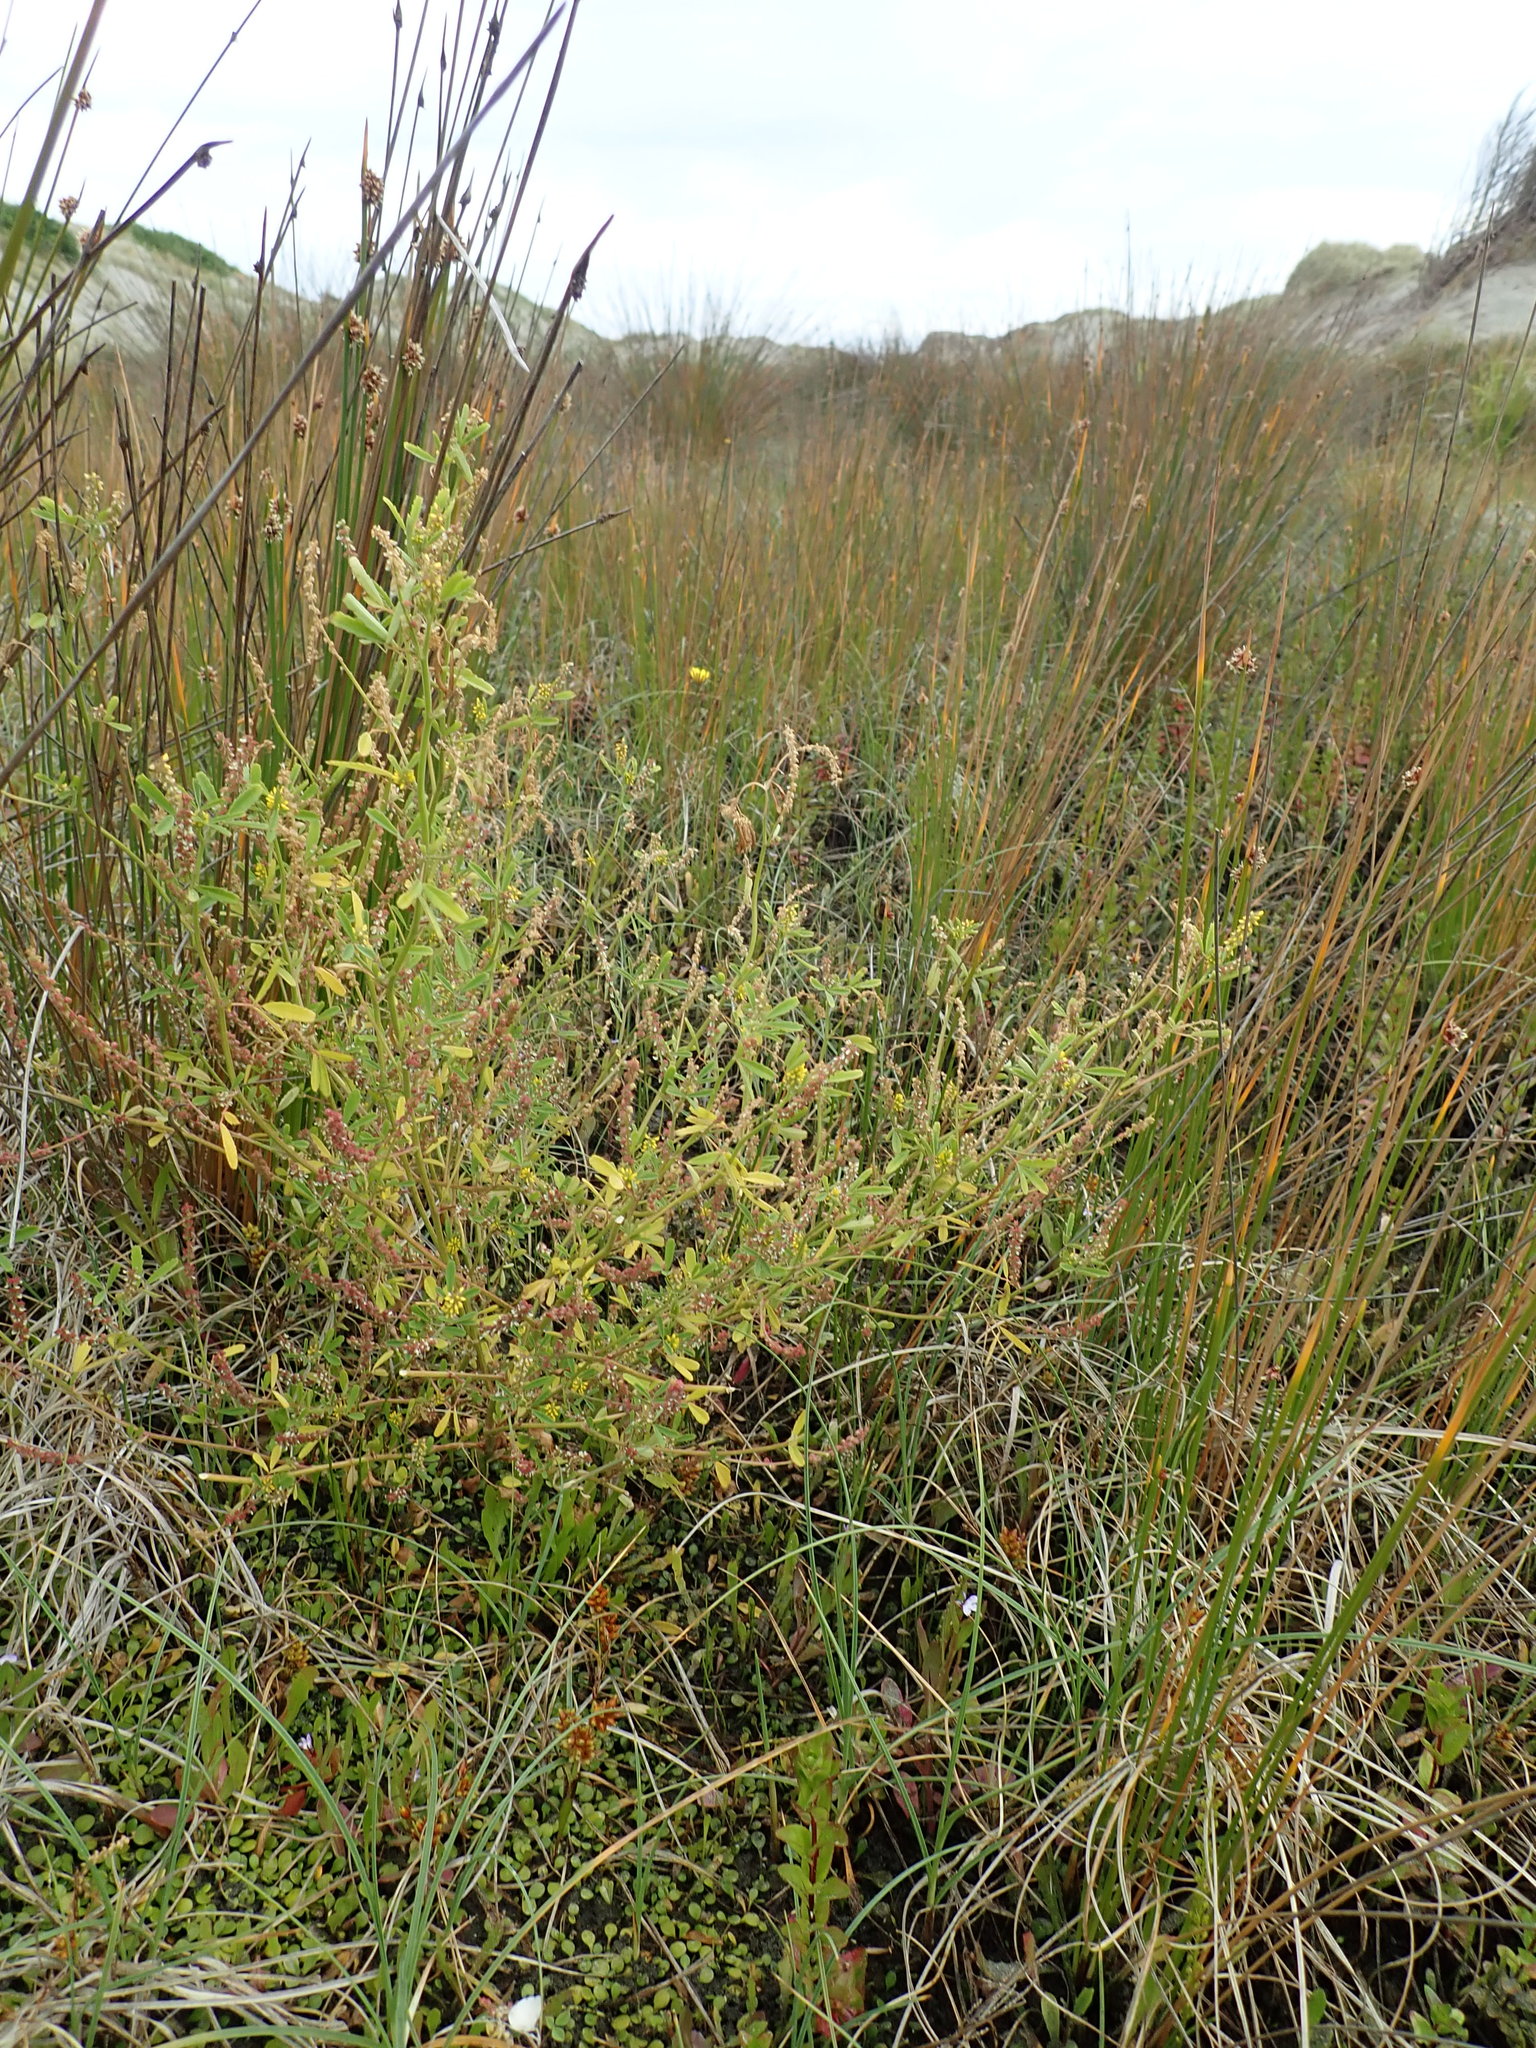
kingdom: Plantae
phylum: Tracheophyta
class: Magnoliopsida
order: Fabales
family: Fabaceae
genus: Melilotus
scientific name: Melilotus indicus
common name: Small melilot
